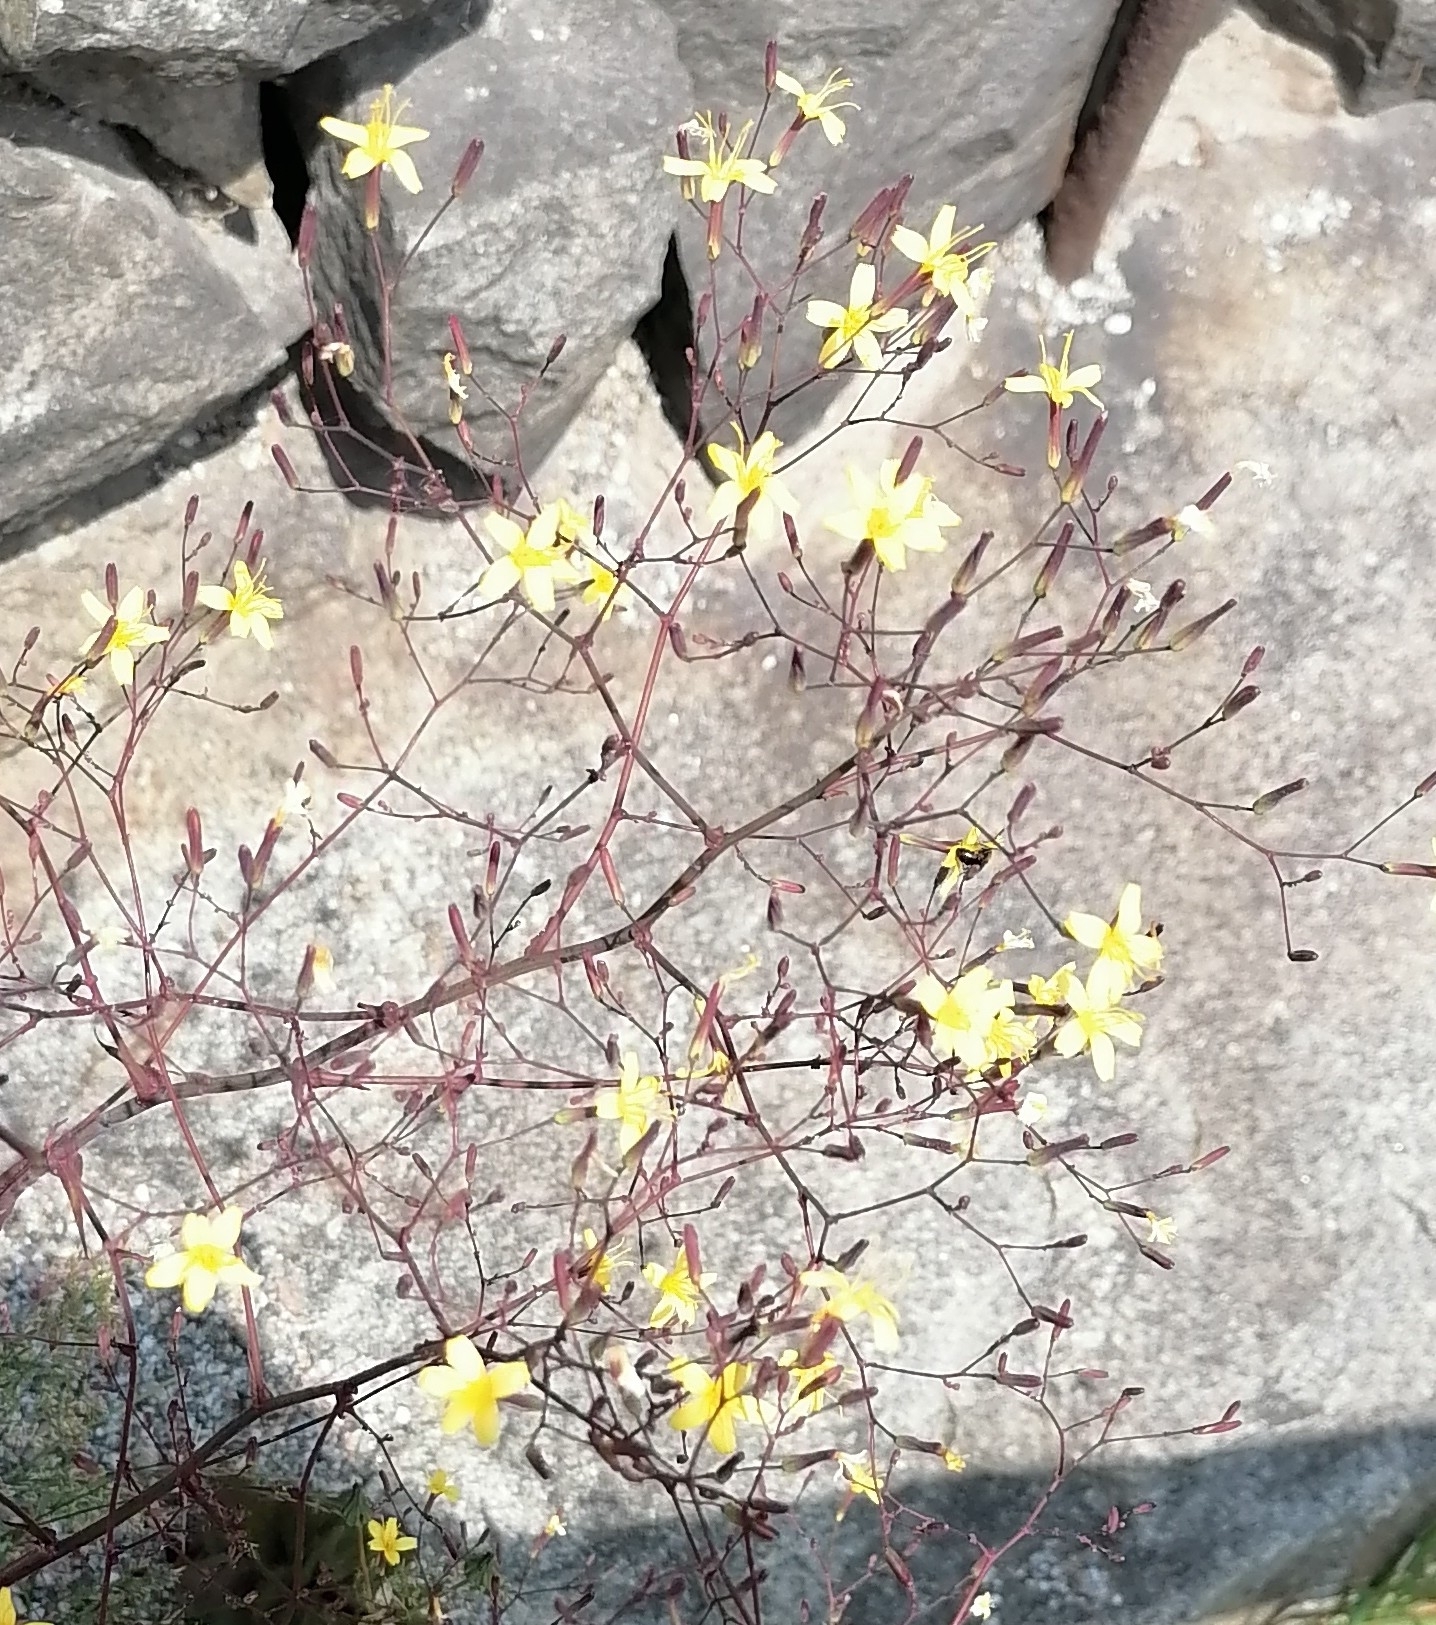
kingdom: Plantae
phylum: Tracheophyta
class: Magnoliopsida
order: Asterales
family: Asteraceae
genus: Mycelis
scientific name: Mycelis muralis
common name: Wall lettuce
